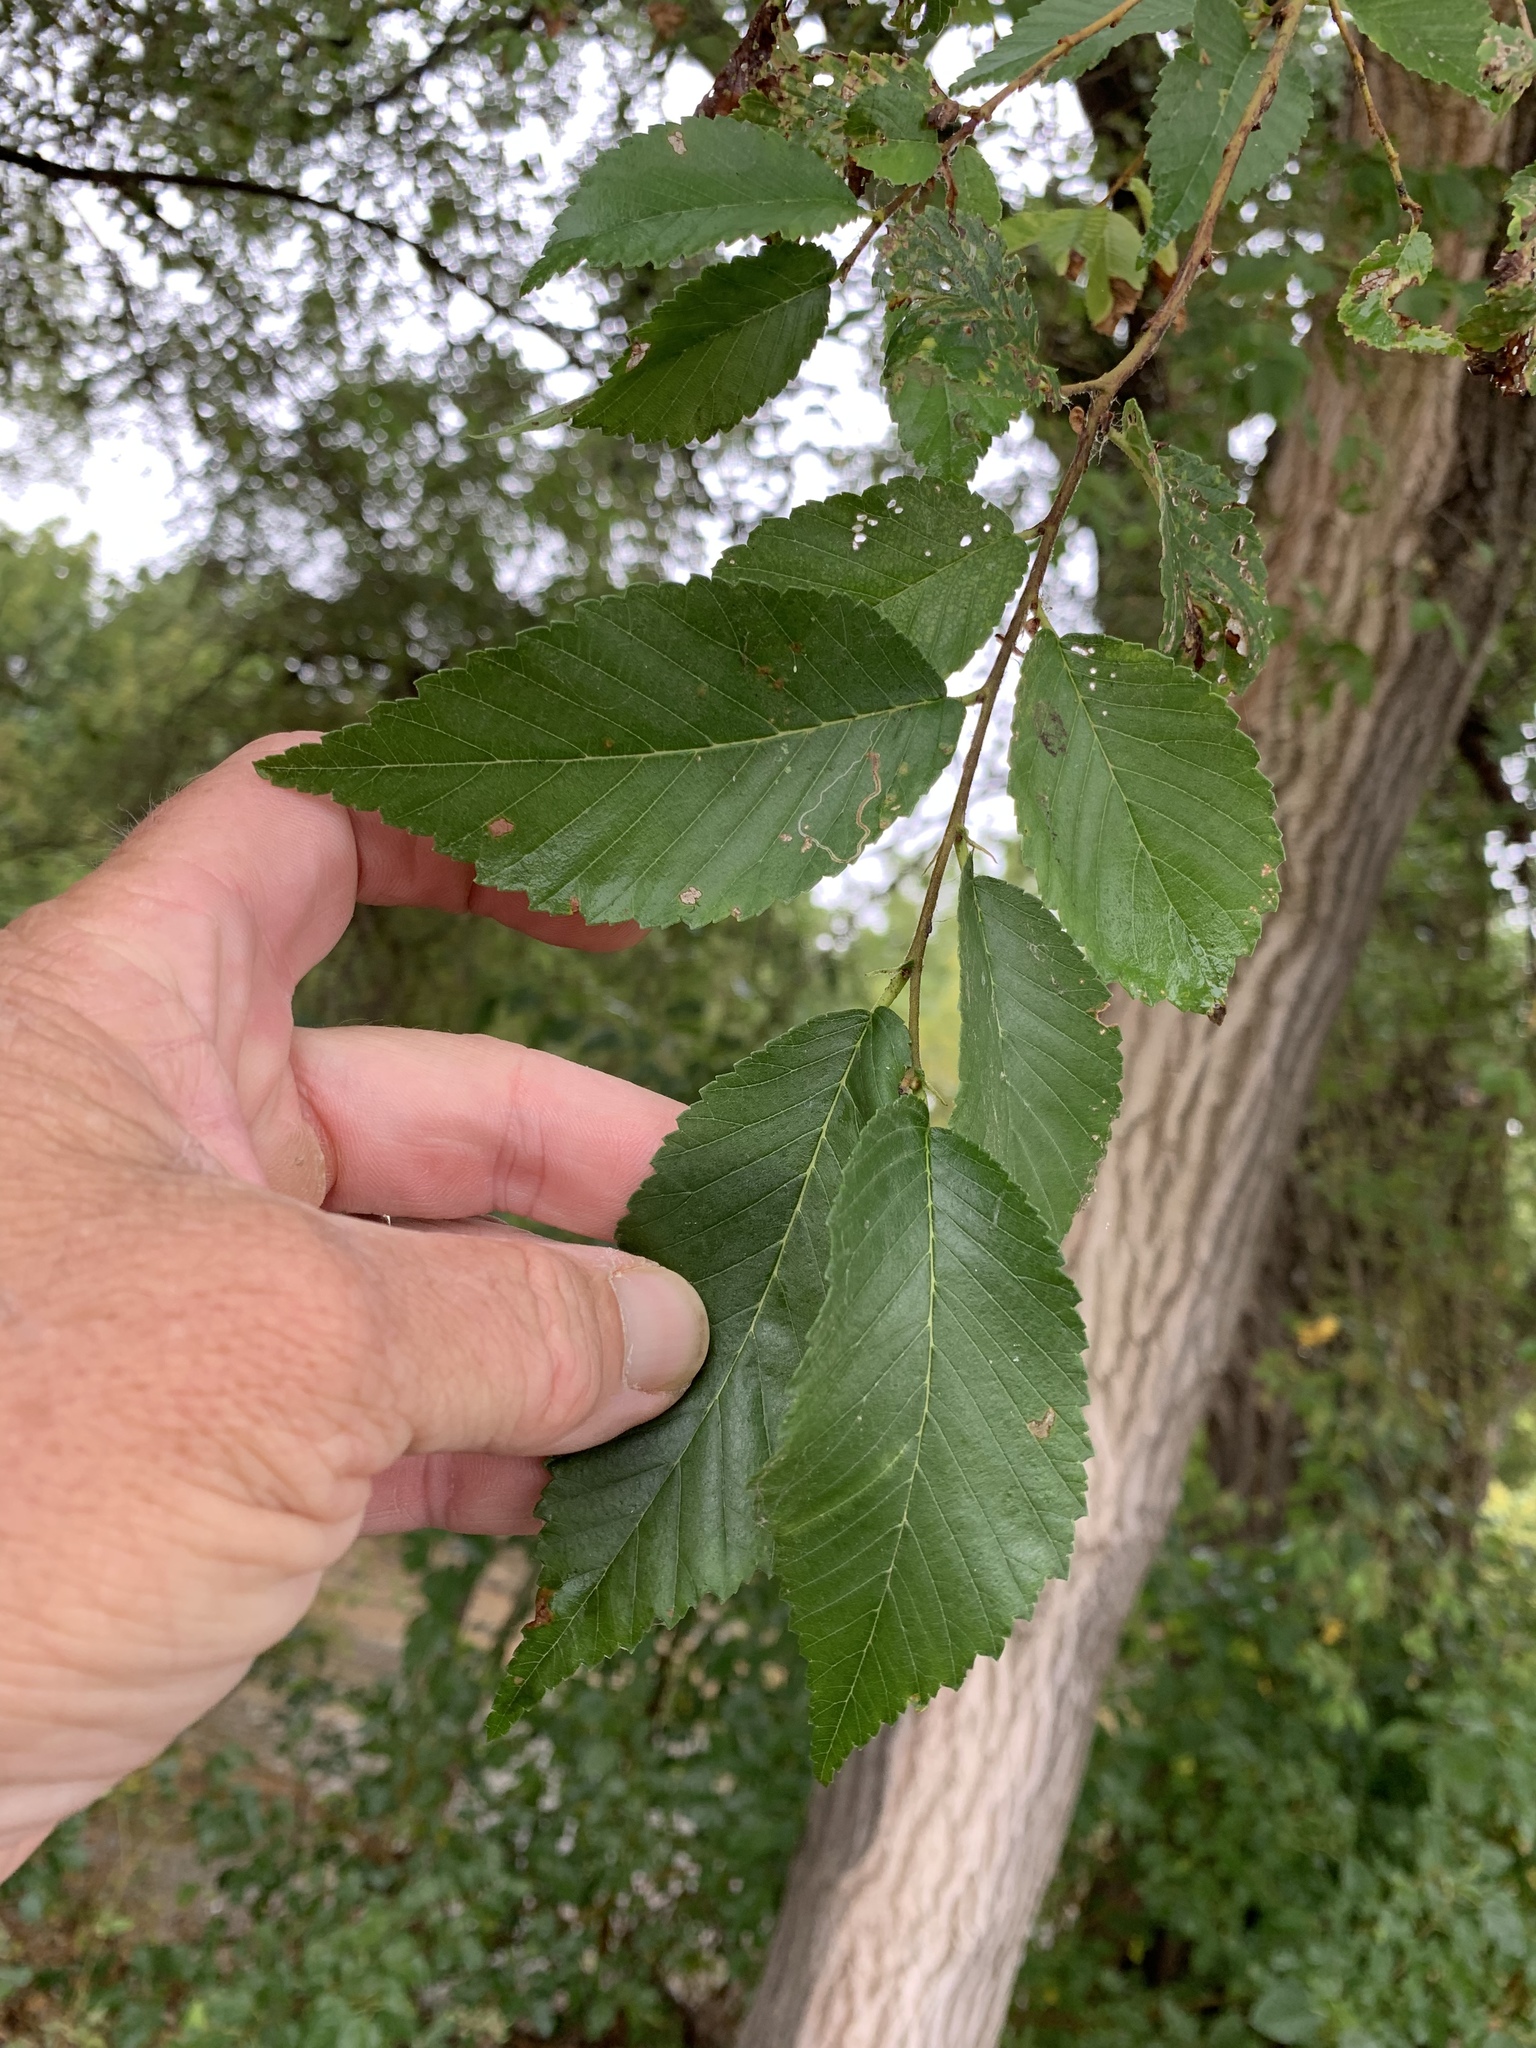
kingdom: Plantae
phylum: Tracheophyta
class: Magnoliopsida
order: Rosales
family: Ulmaceae
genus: Ulmus
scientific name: Ulmus pumila
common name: Siberian elm
